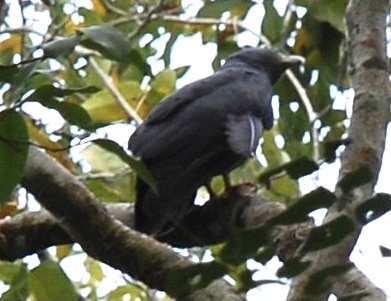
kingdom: Animalia
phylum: Chordata
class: Aves
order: Accipitriformes
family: Accipitridae
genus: Chondrohierax
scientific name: Chondrohierax uncinatus
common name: Hook-billed kite
